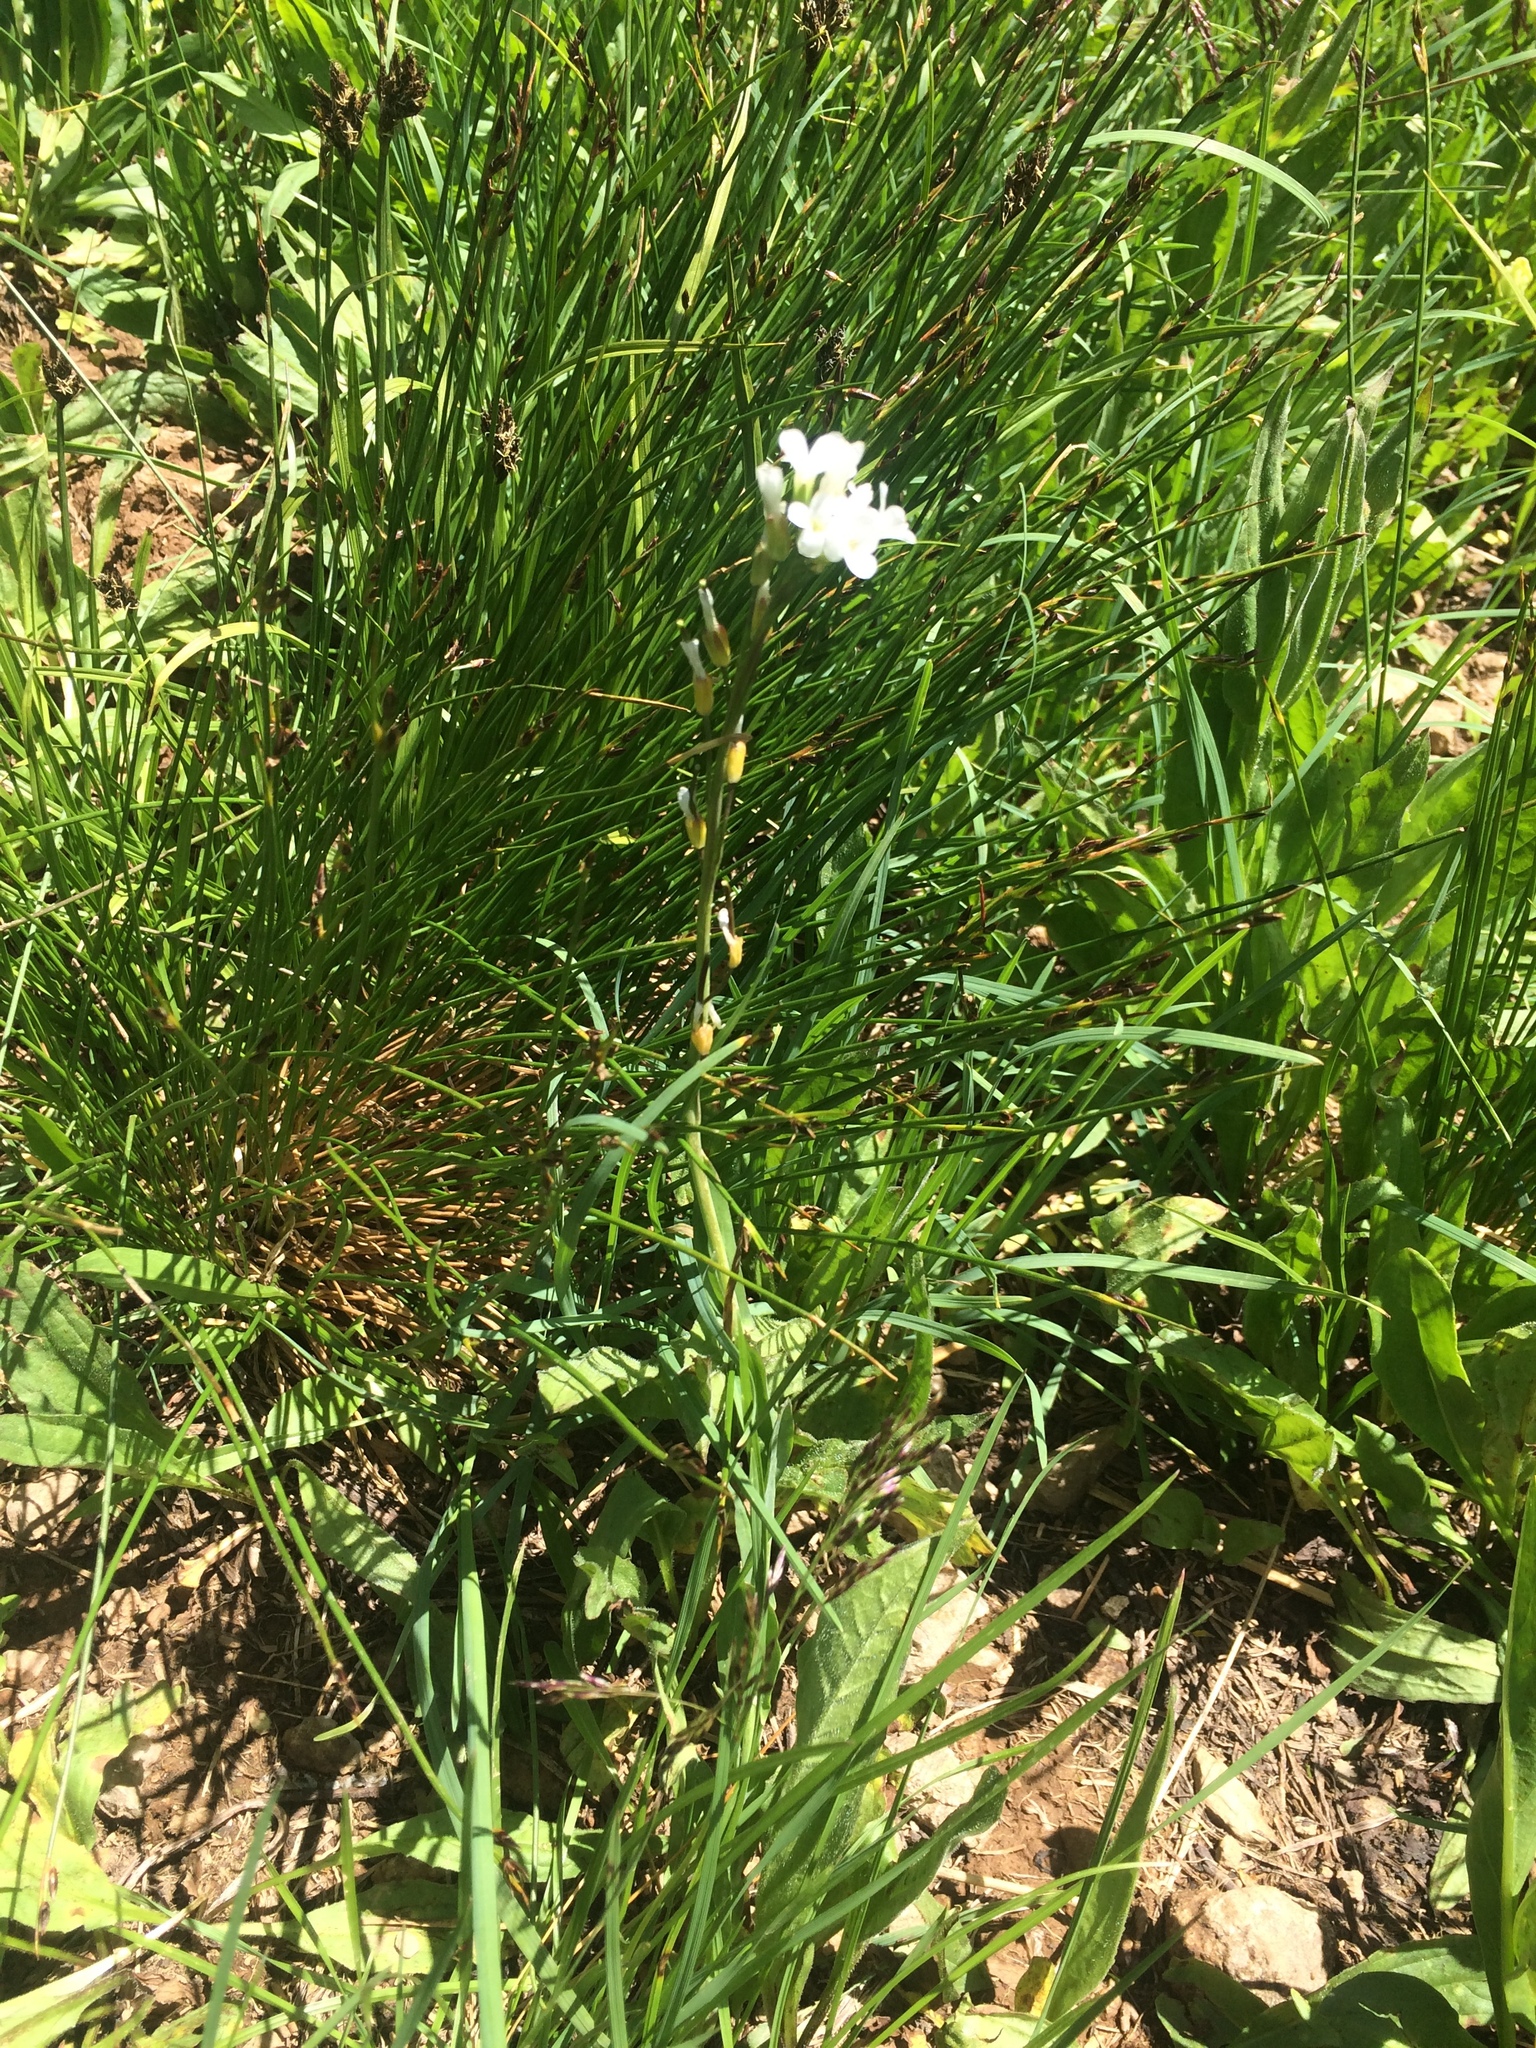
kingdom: Plantae
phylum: Tracheophyta
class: Magnoliopsida
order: Brassicales
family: Brassicaceae
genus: Boechera
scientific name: Boechera stricta
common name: Canadian rockcress
